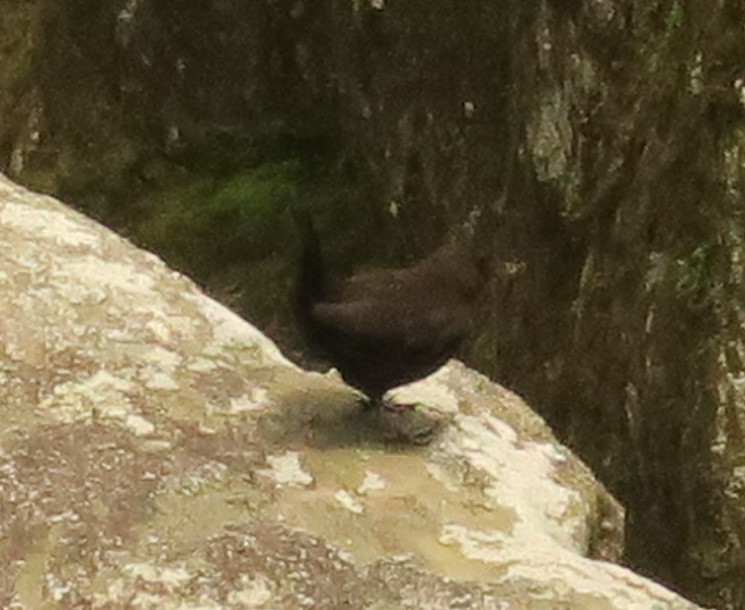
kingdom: Animalia
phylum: Chordata
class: Aves
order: Passeriformes
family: Cinclidae
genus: Cinclus
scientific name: Cinclus pallasii
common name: Brown dipper
